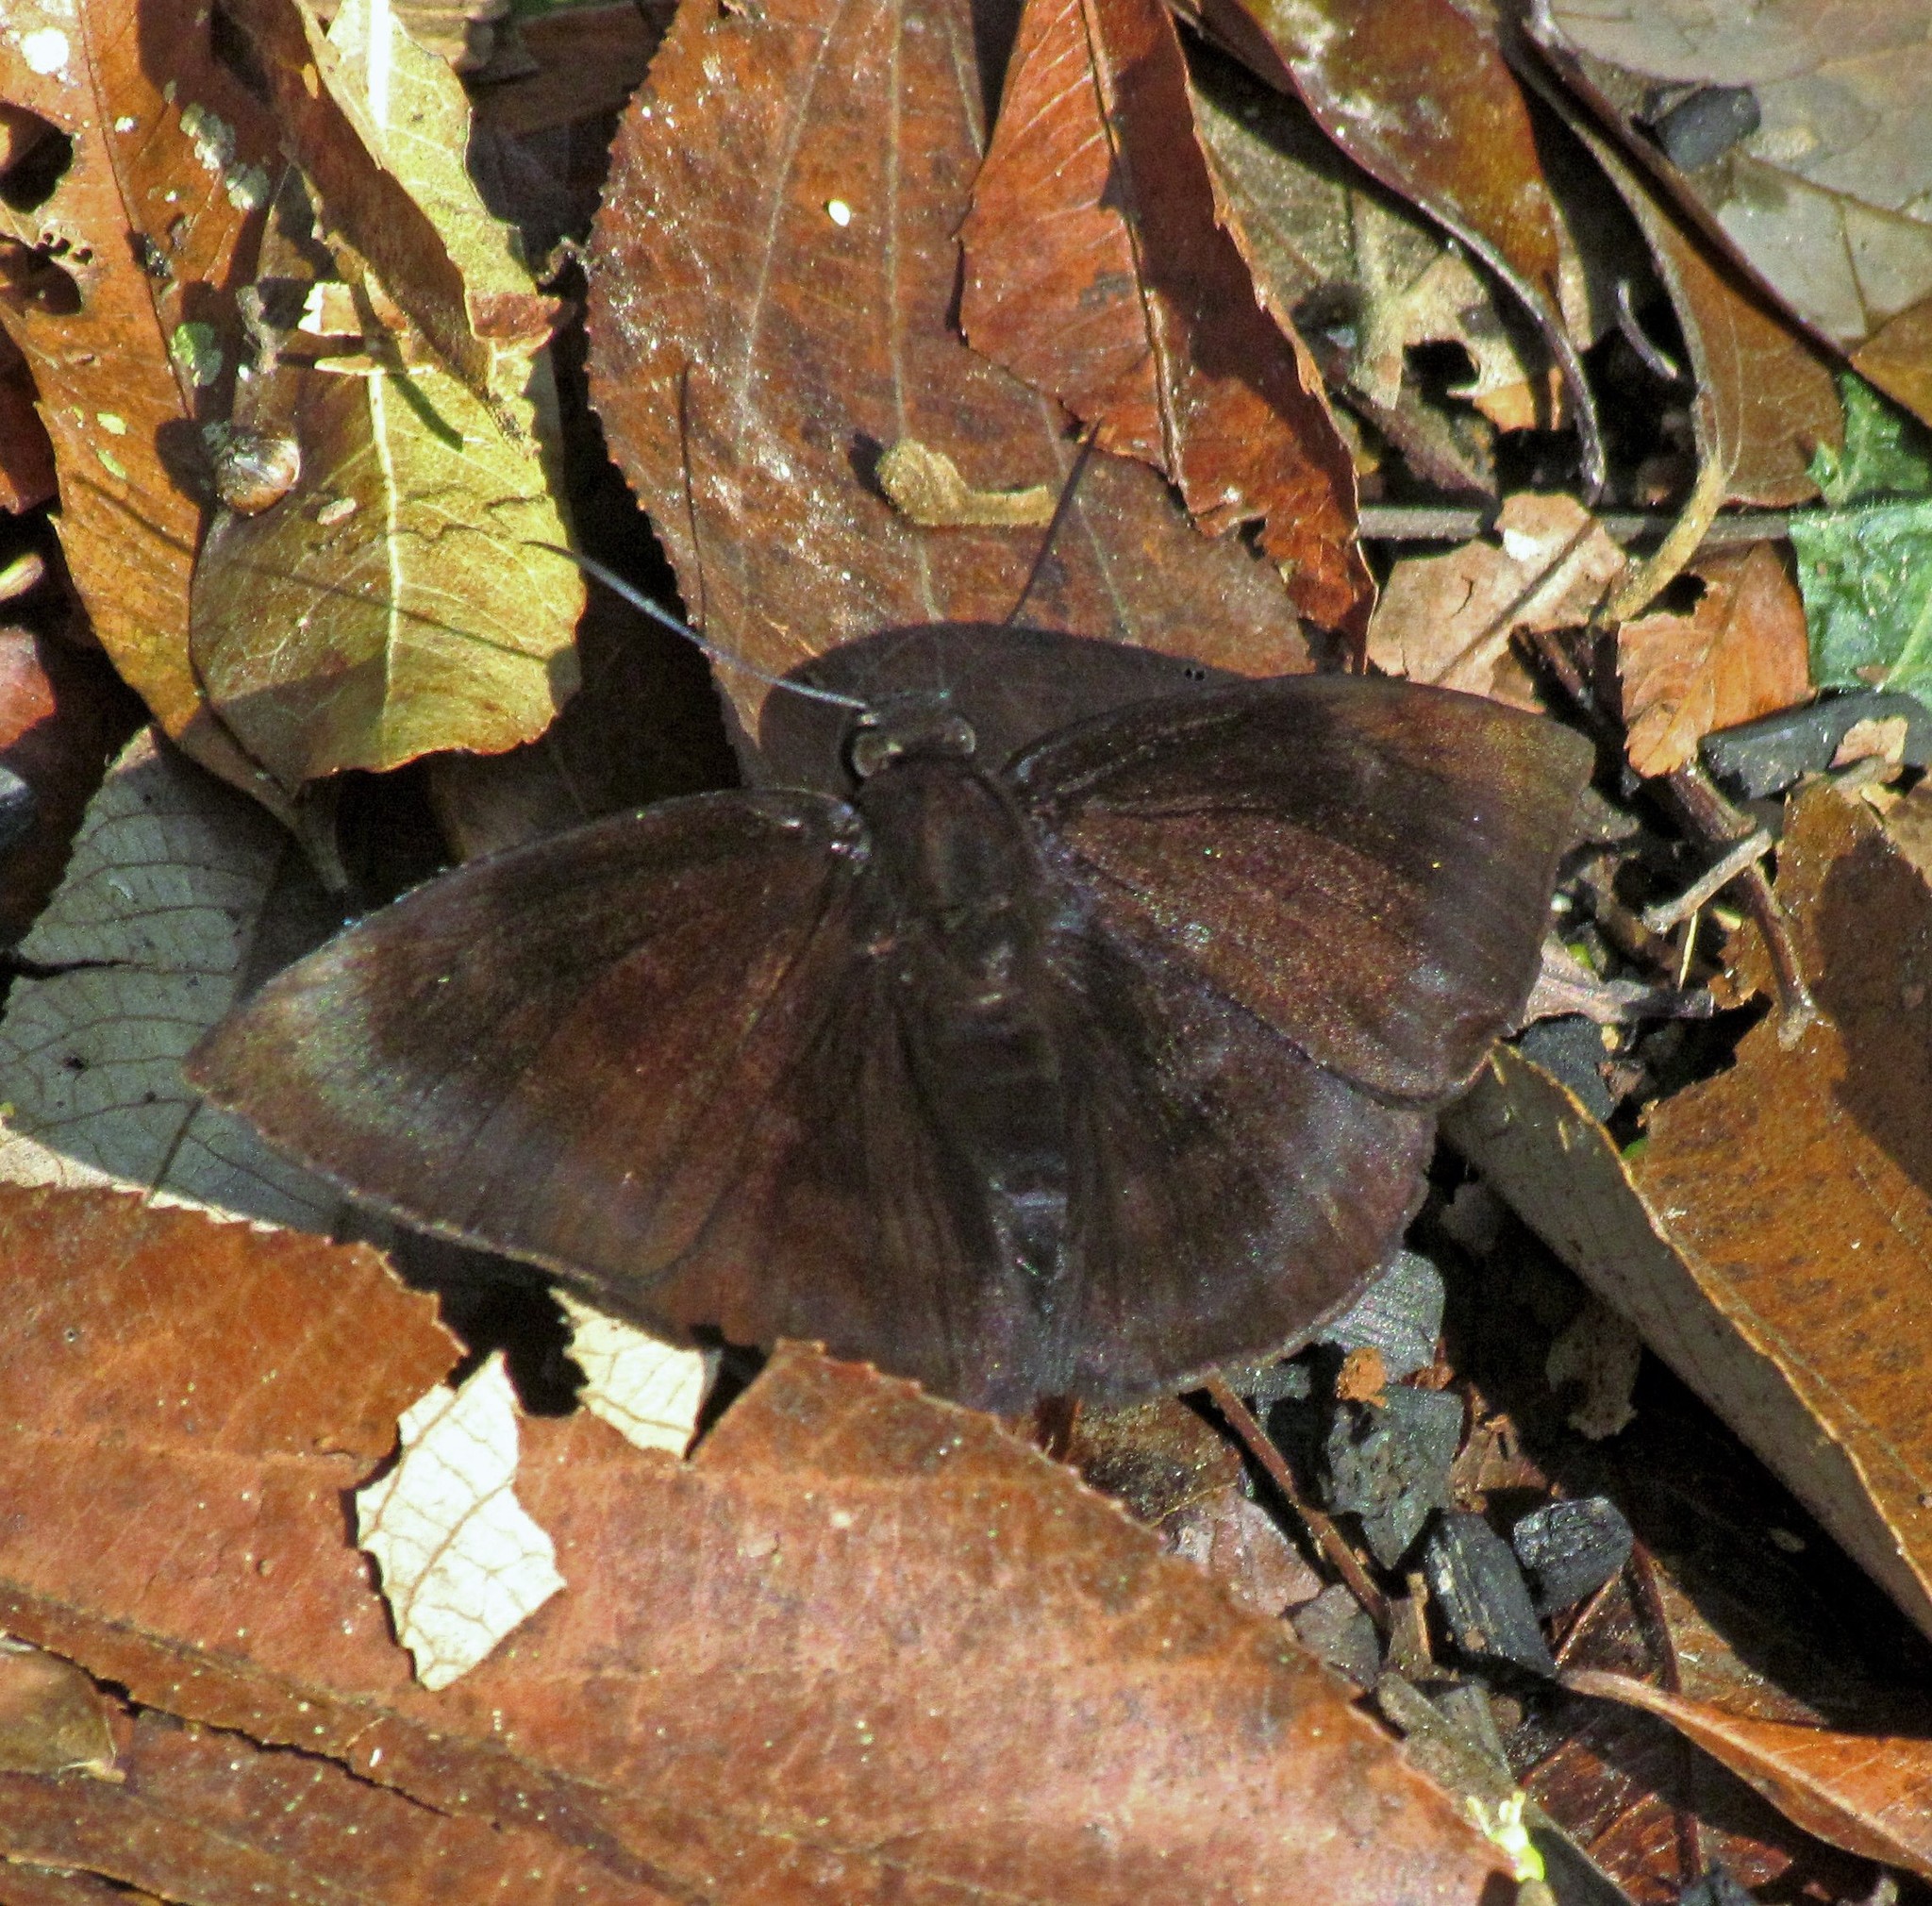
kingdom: Animalia
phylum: Arthropoda
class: Insecta
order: Lepidoptera
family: Hesperiidae
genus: Aethilla
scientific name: Aethilla echina
